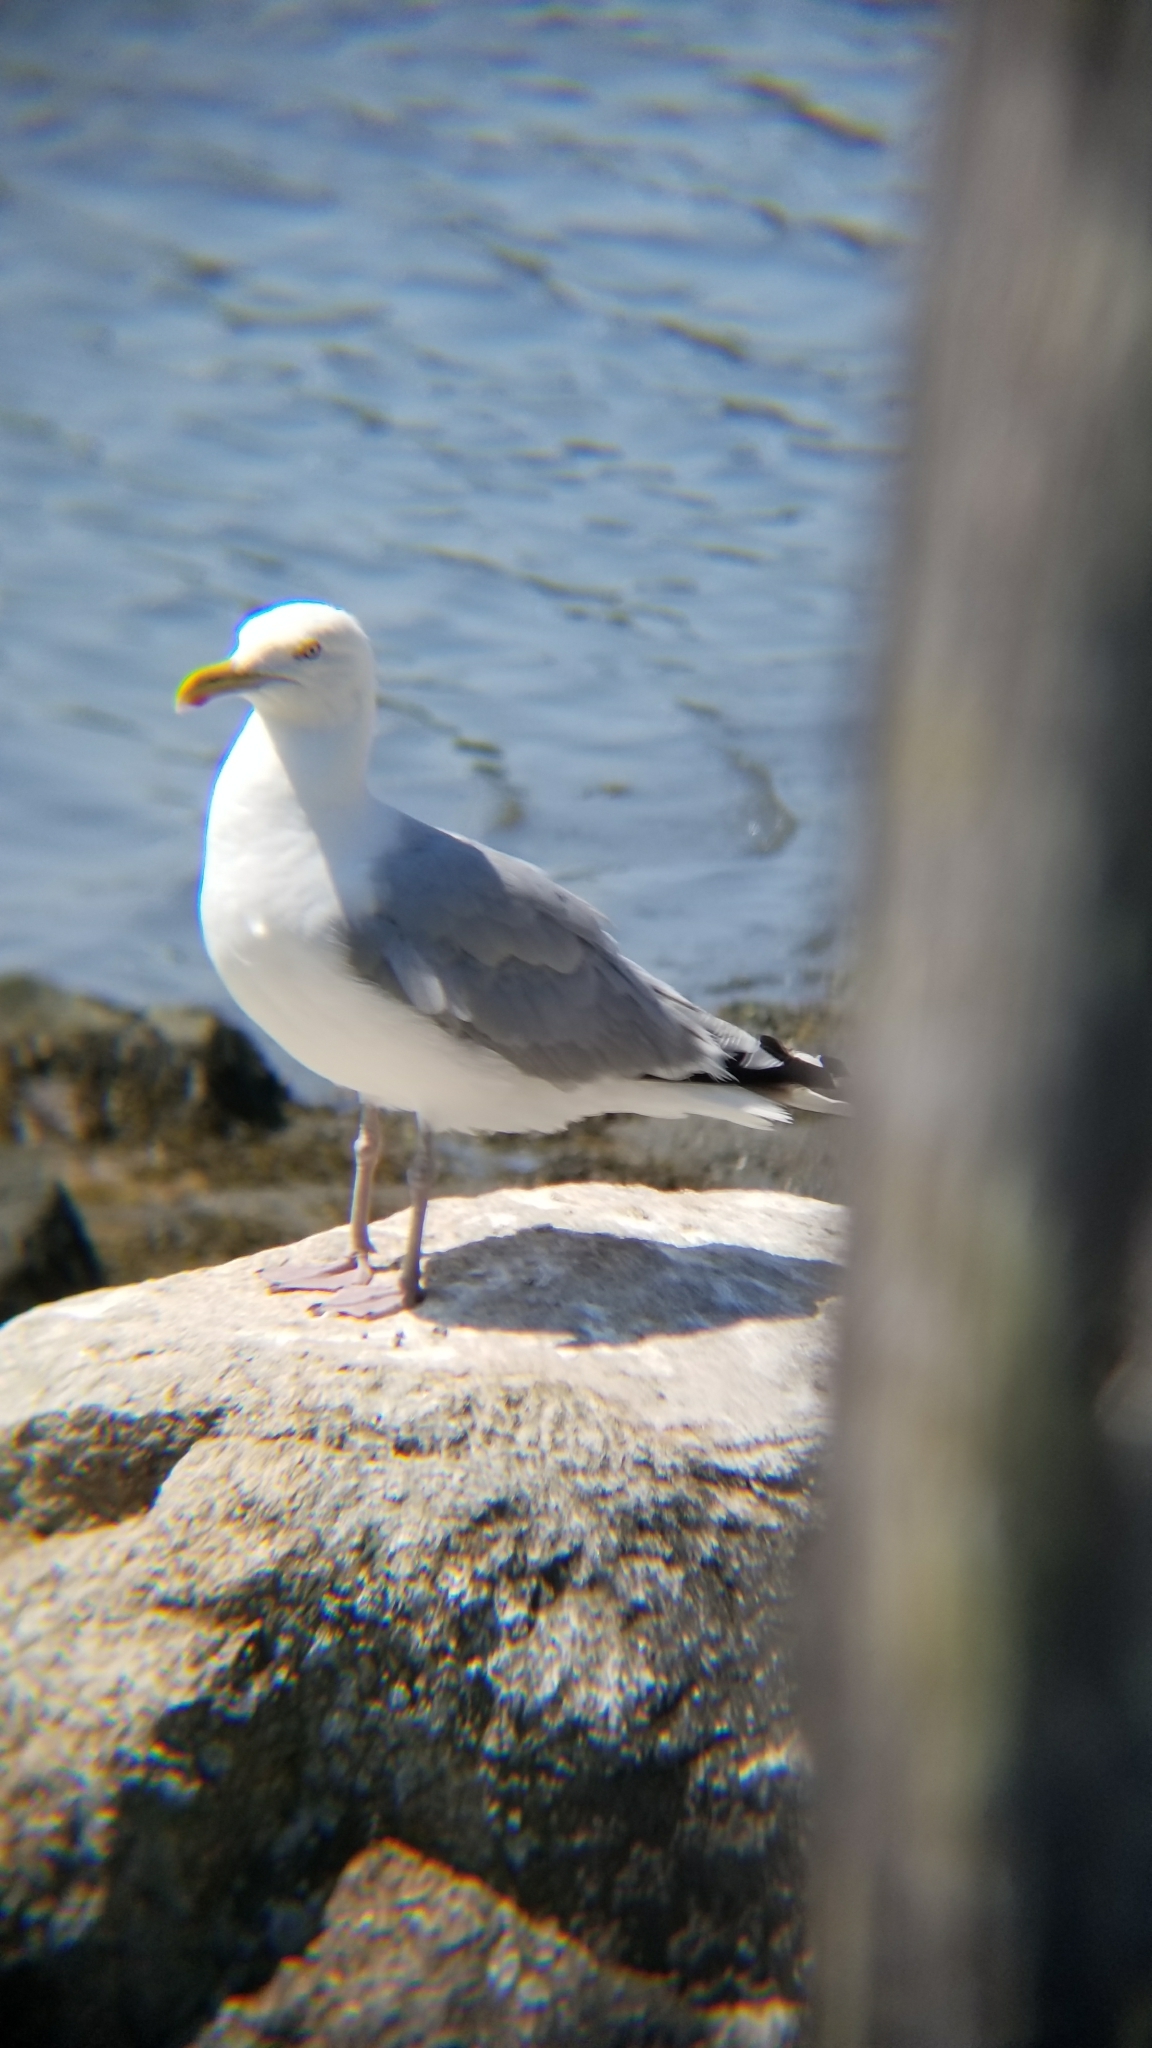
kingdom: Animalia
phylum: Chordata
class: Aves
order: Charadriiformes
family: Laridae
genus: Larus
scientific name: Larus argentatus
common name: Herring gull
